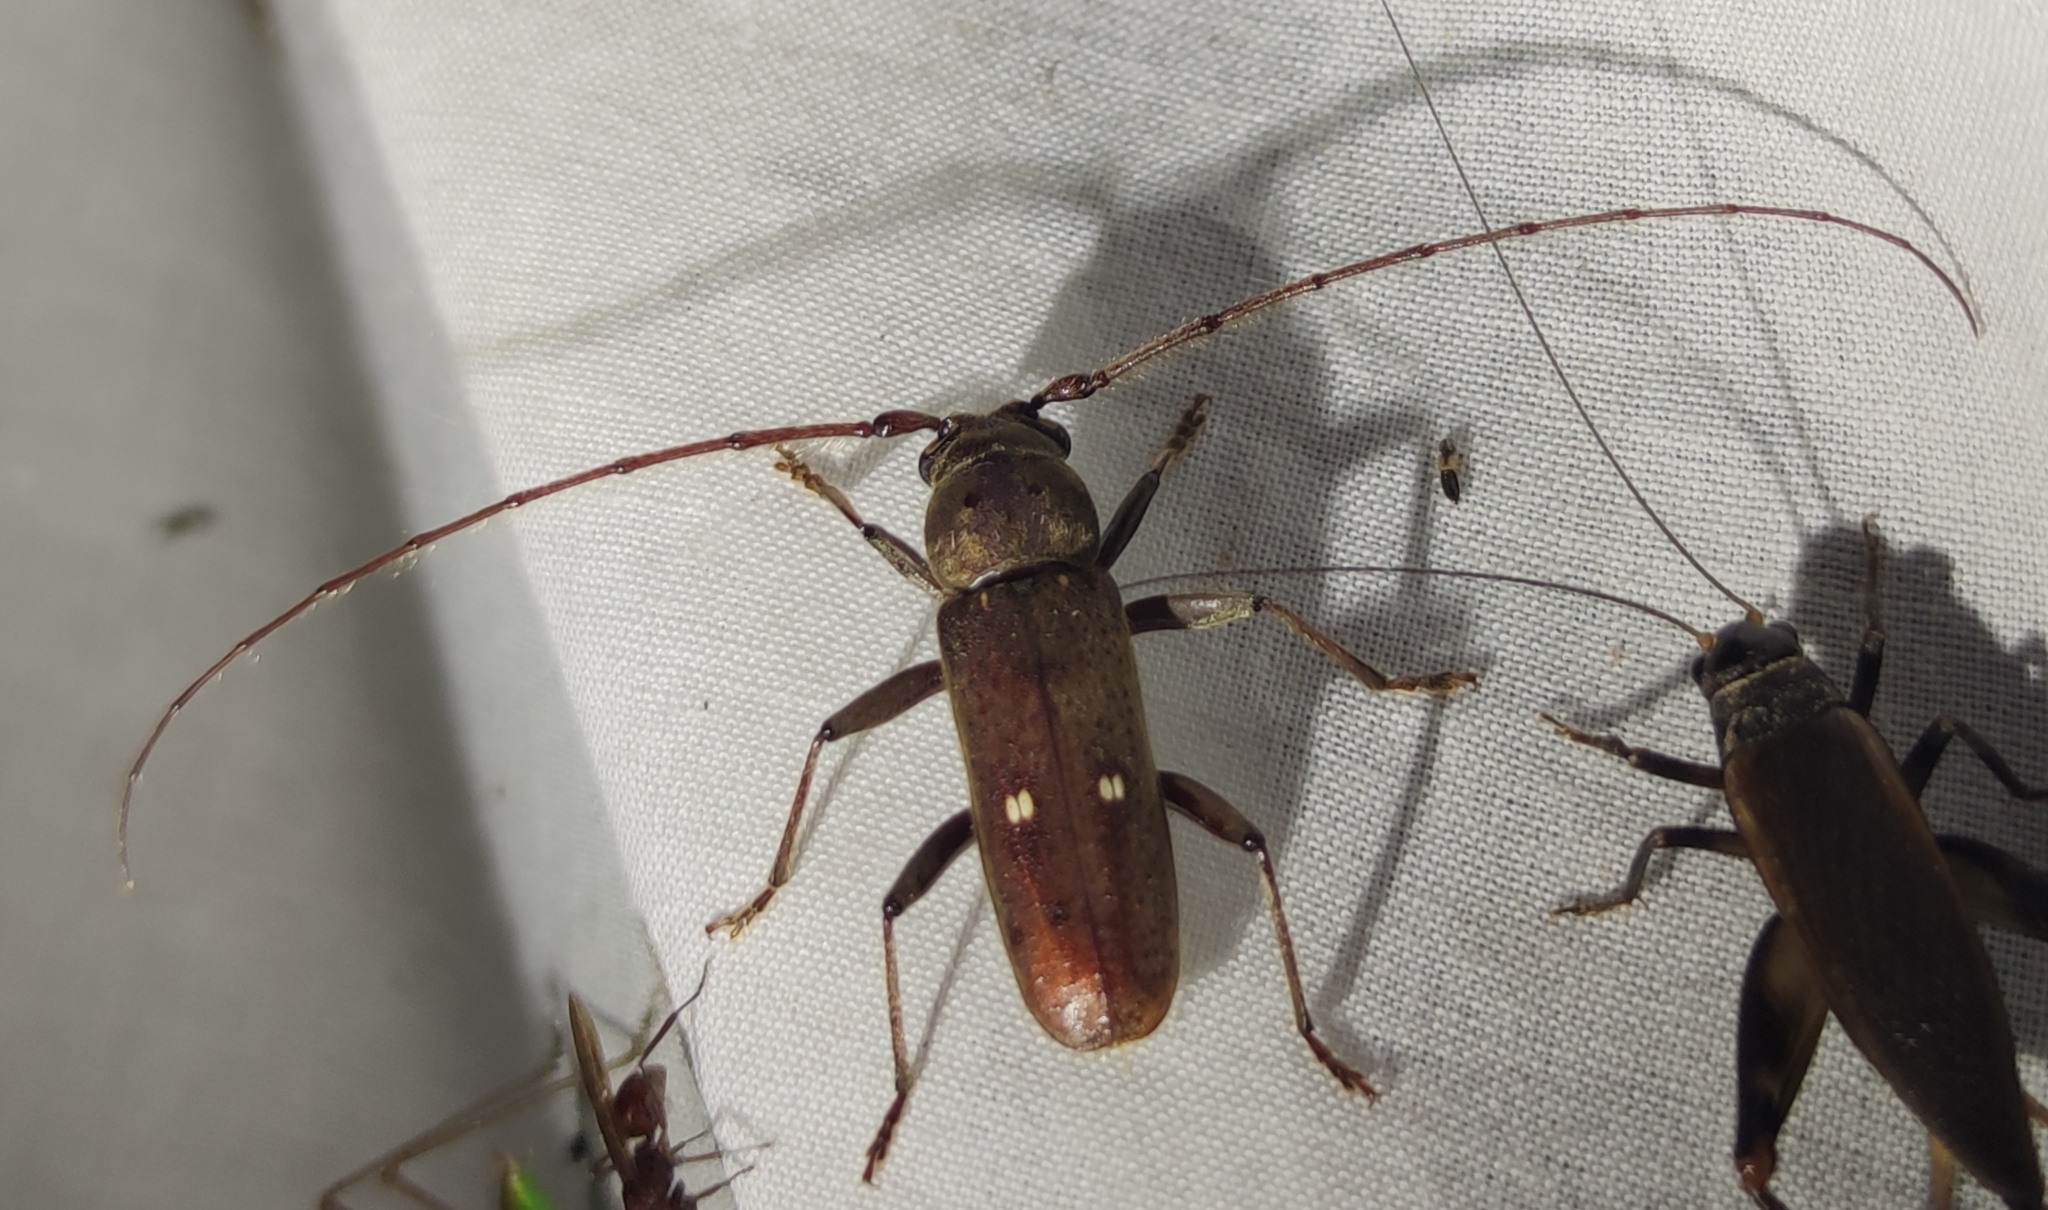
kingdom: Animalia
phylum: Arthropoda
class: Insecta
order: Coleoptera
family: Cerambycidae
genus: Gnatholea
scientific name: Gnatholea eburifera
